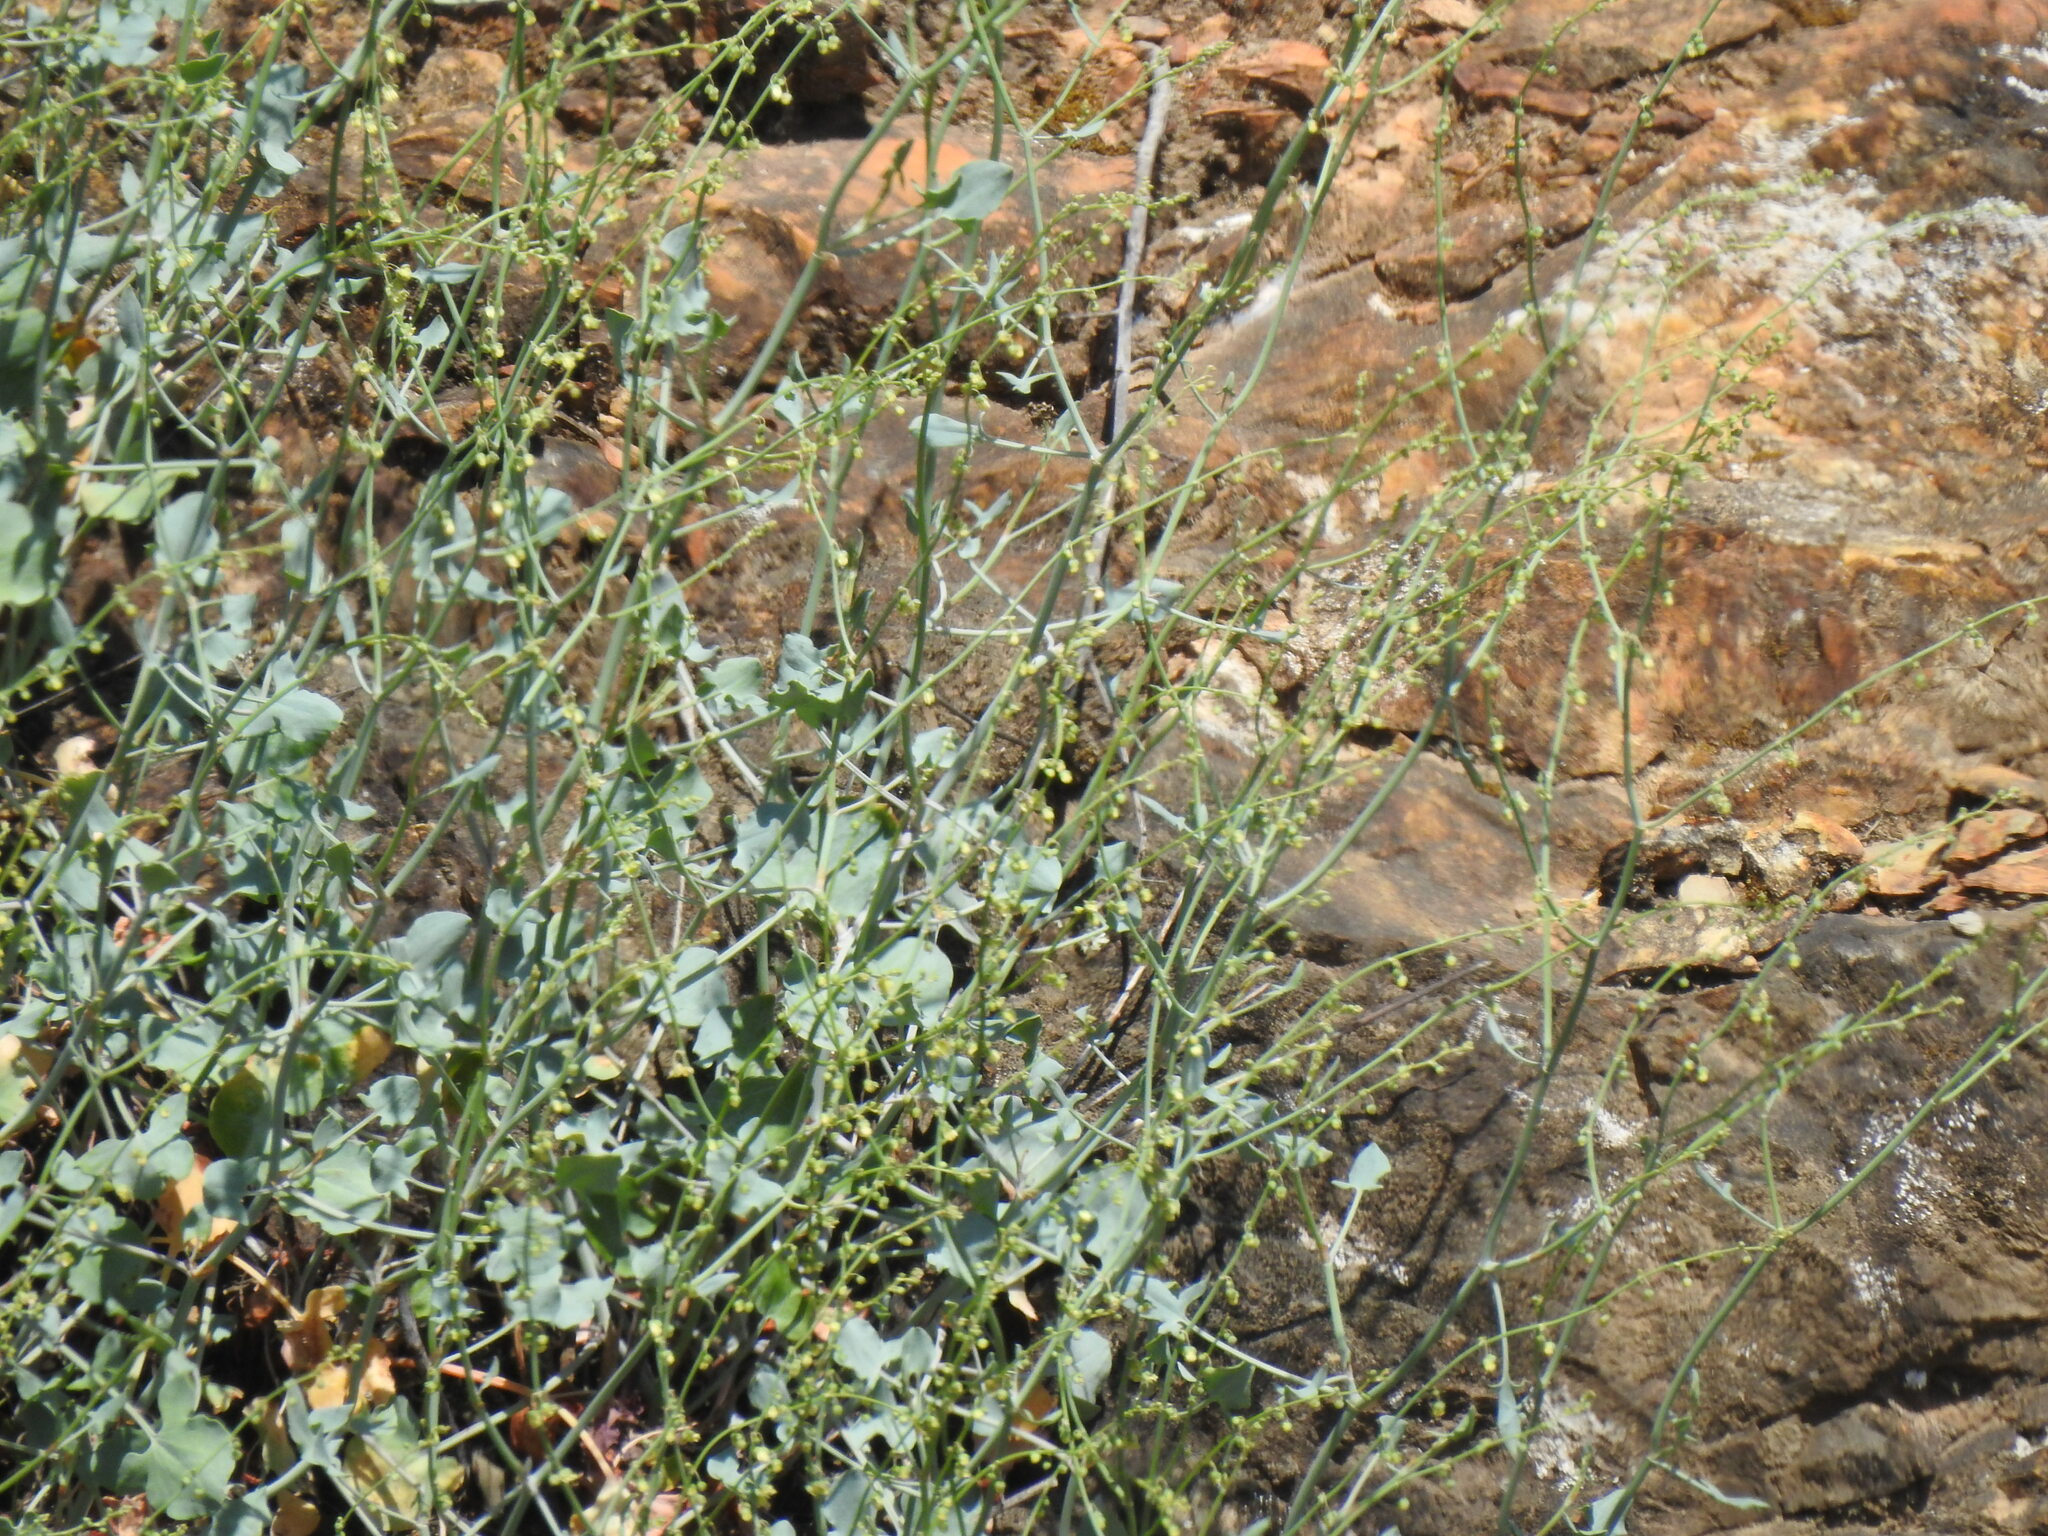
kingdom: Plantae
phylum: Tracheophyta
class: Magnoliopsida
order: Caryophyllales
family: Polygonaceae
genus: Rumex
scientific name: Rumex induratus
